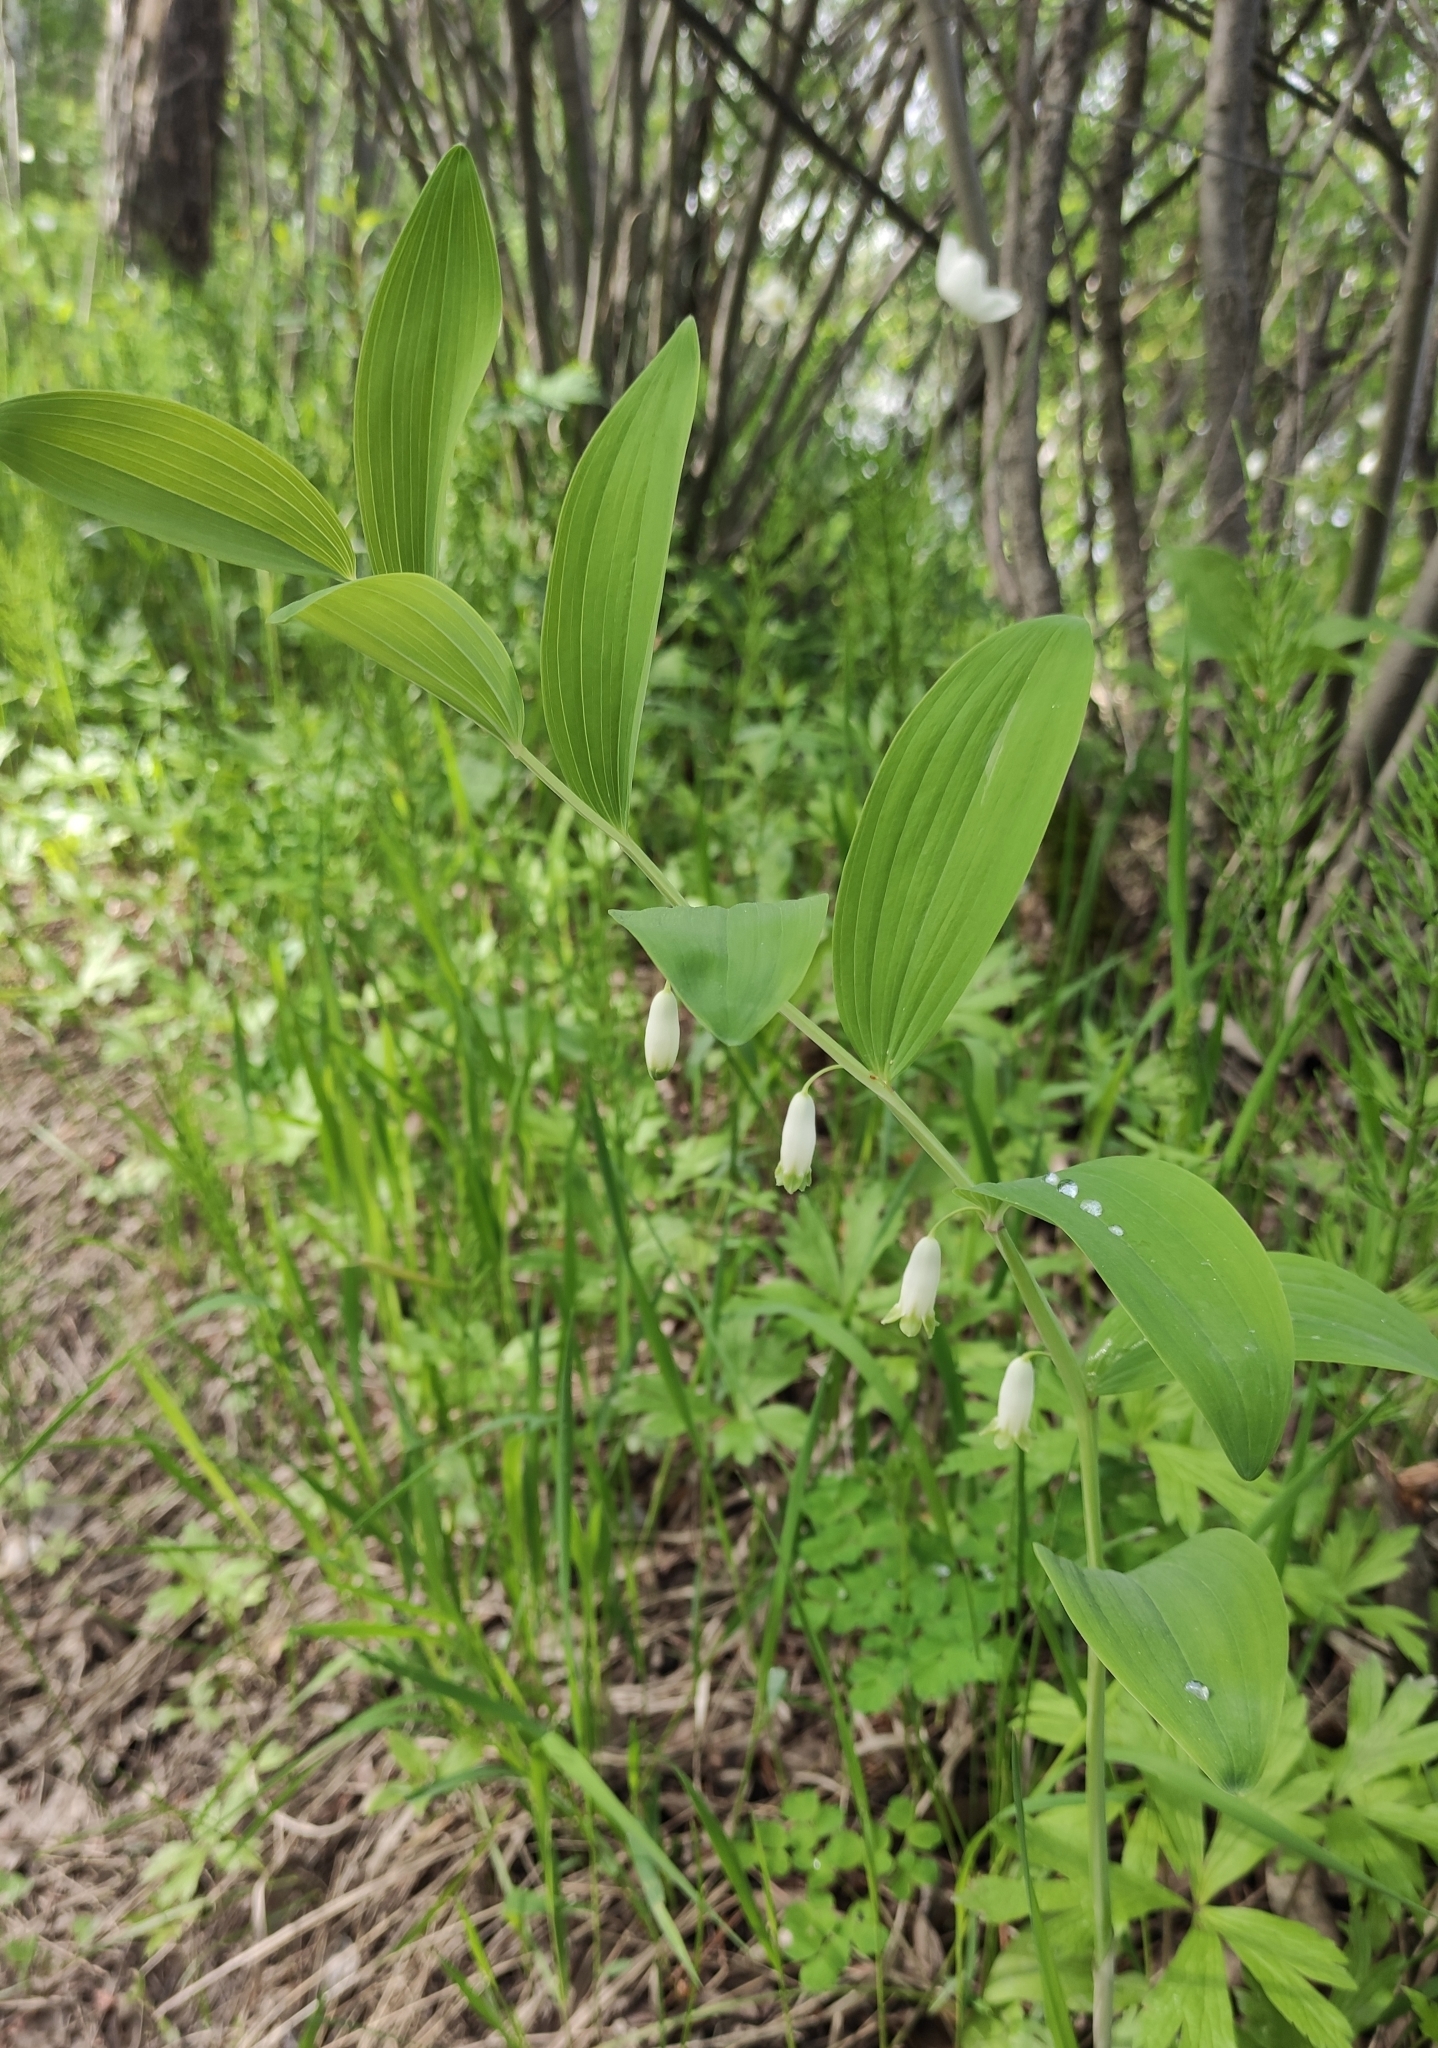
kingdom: Plantae
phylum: Tracheophyta
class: Liliopsida
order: Asparagales
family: Asparagaceae
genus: Polygonatum
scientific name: Polygonatum odoratum
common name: Angular solomon's-seal
